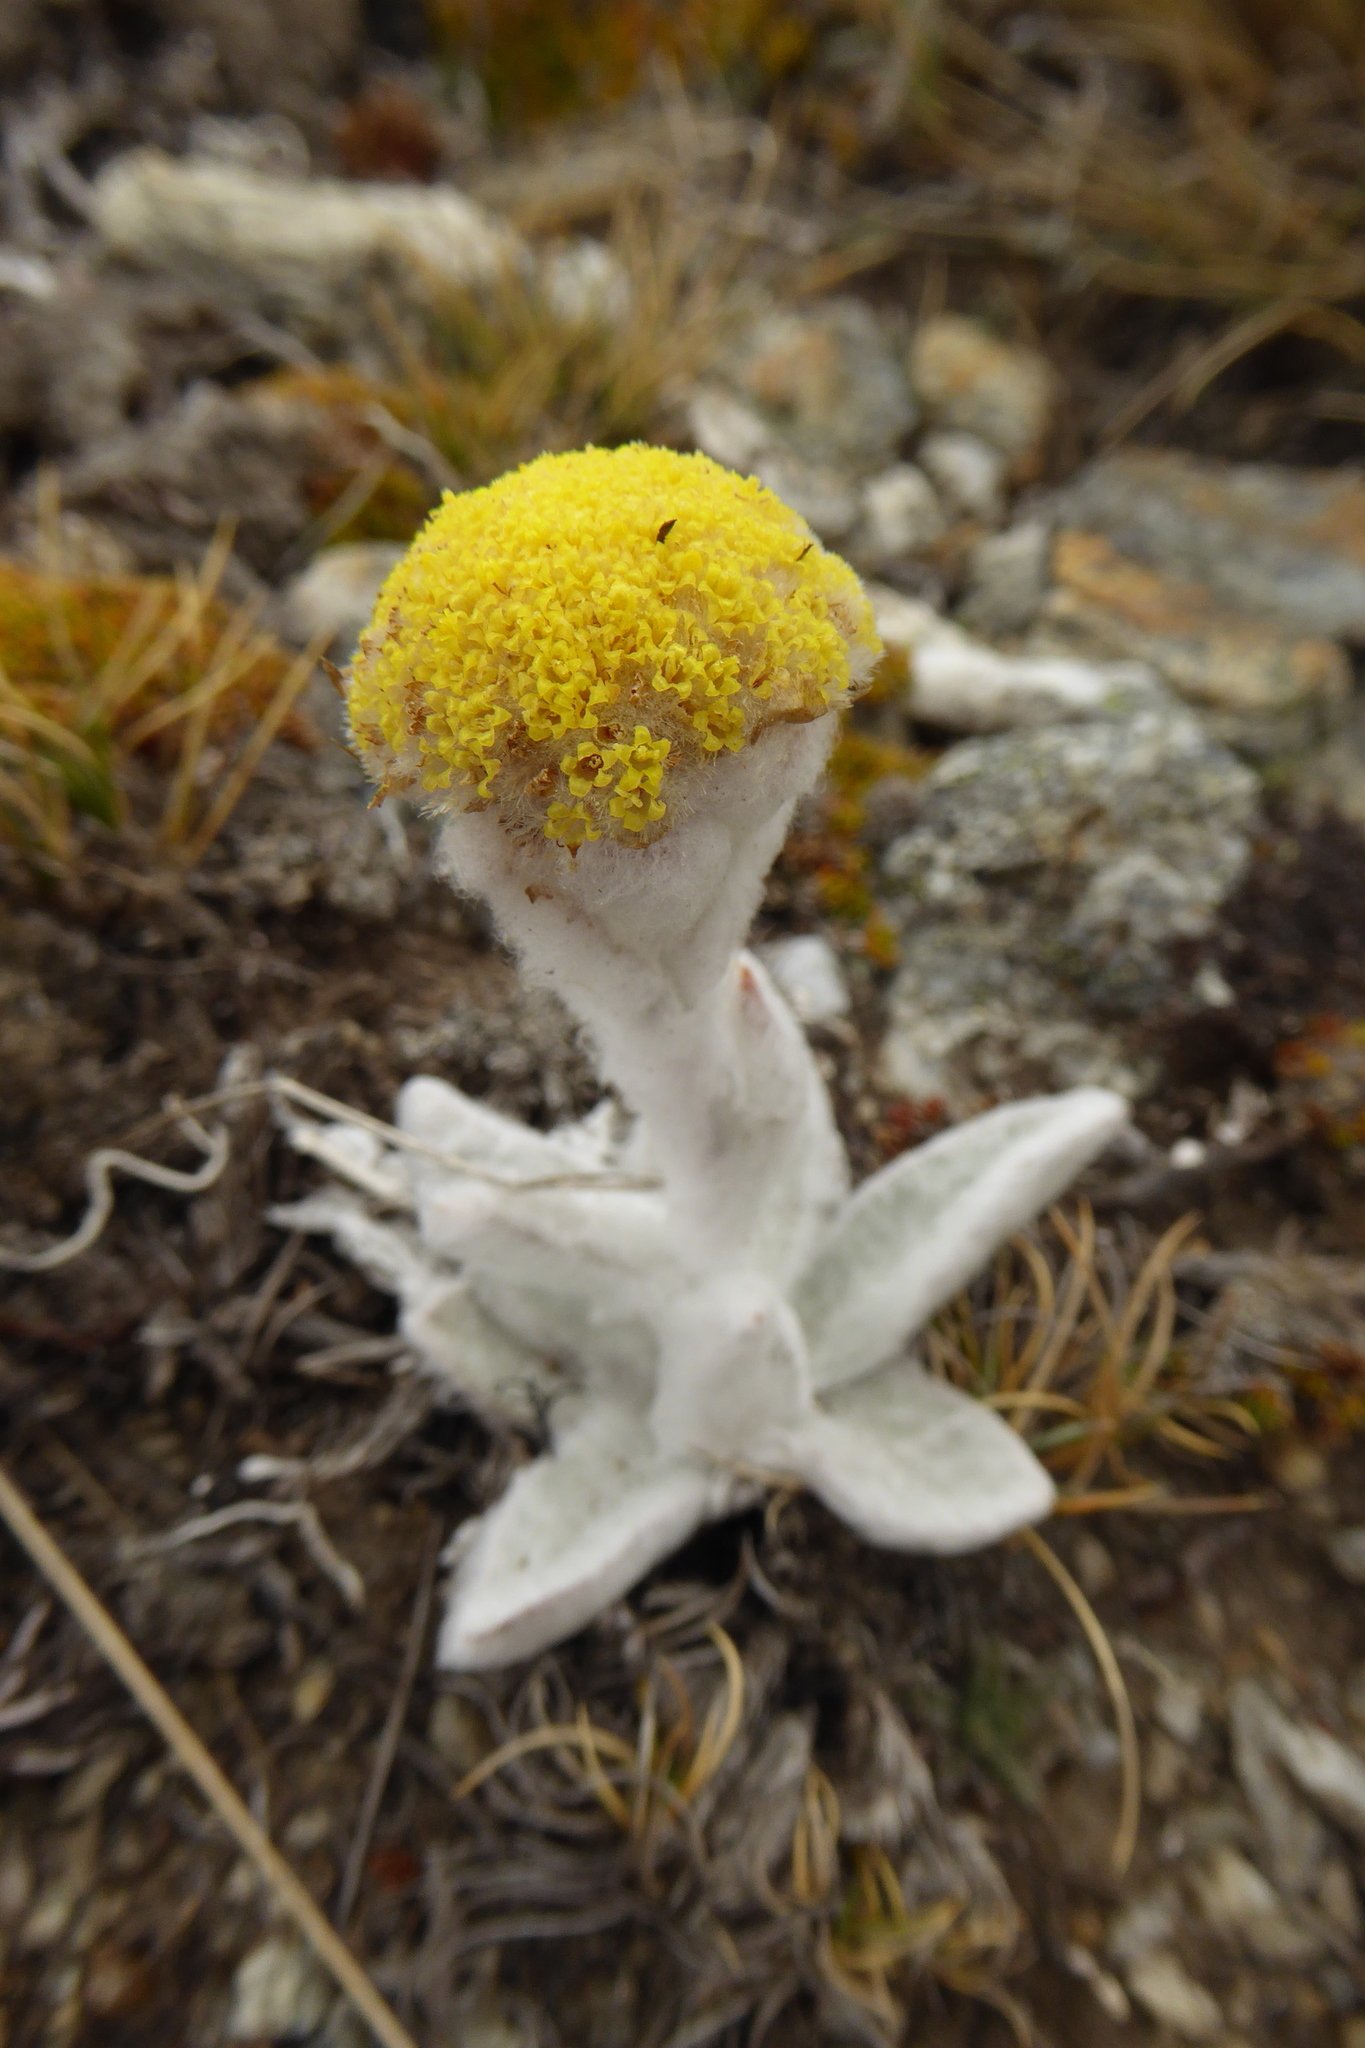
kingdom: Plantae
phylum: Tracheophyta
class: Magnoliopsida
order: Asterales
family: Asteraceae
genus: Craspedia
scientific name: Craspedia incana
